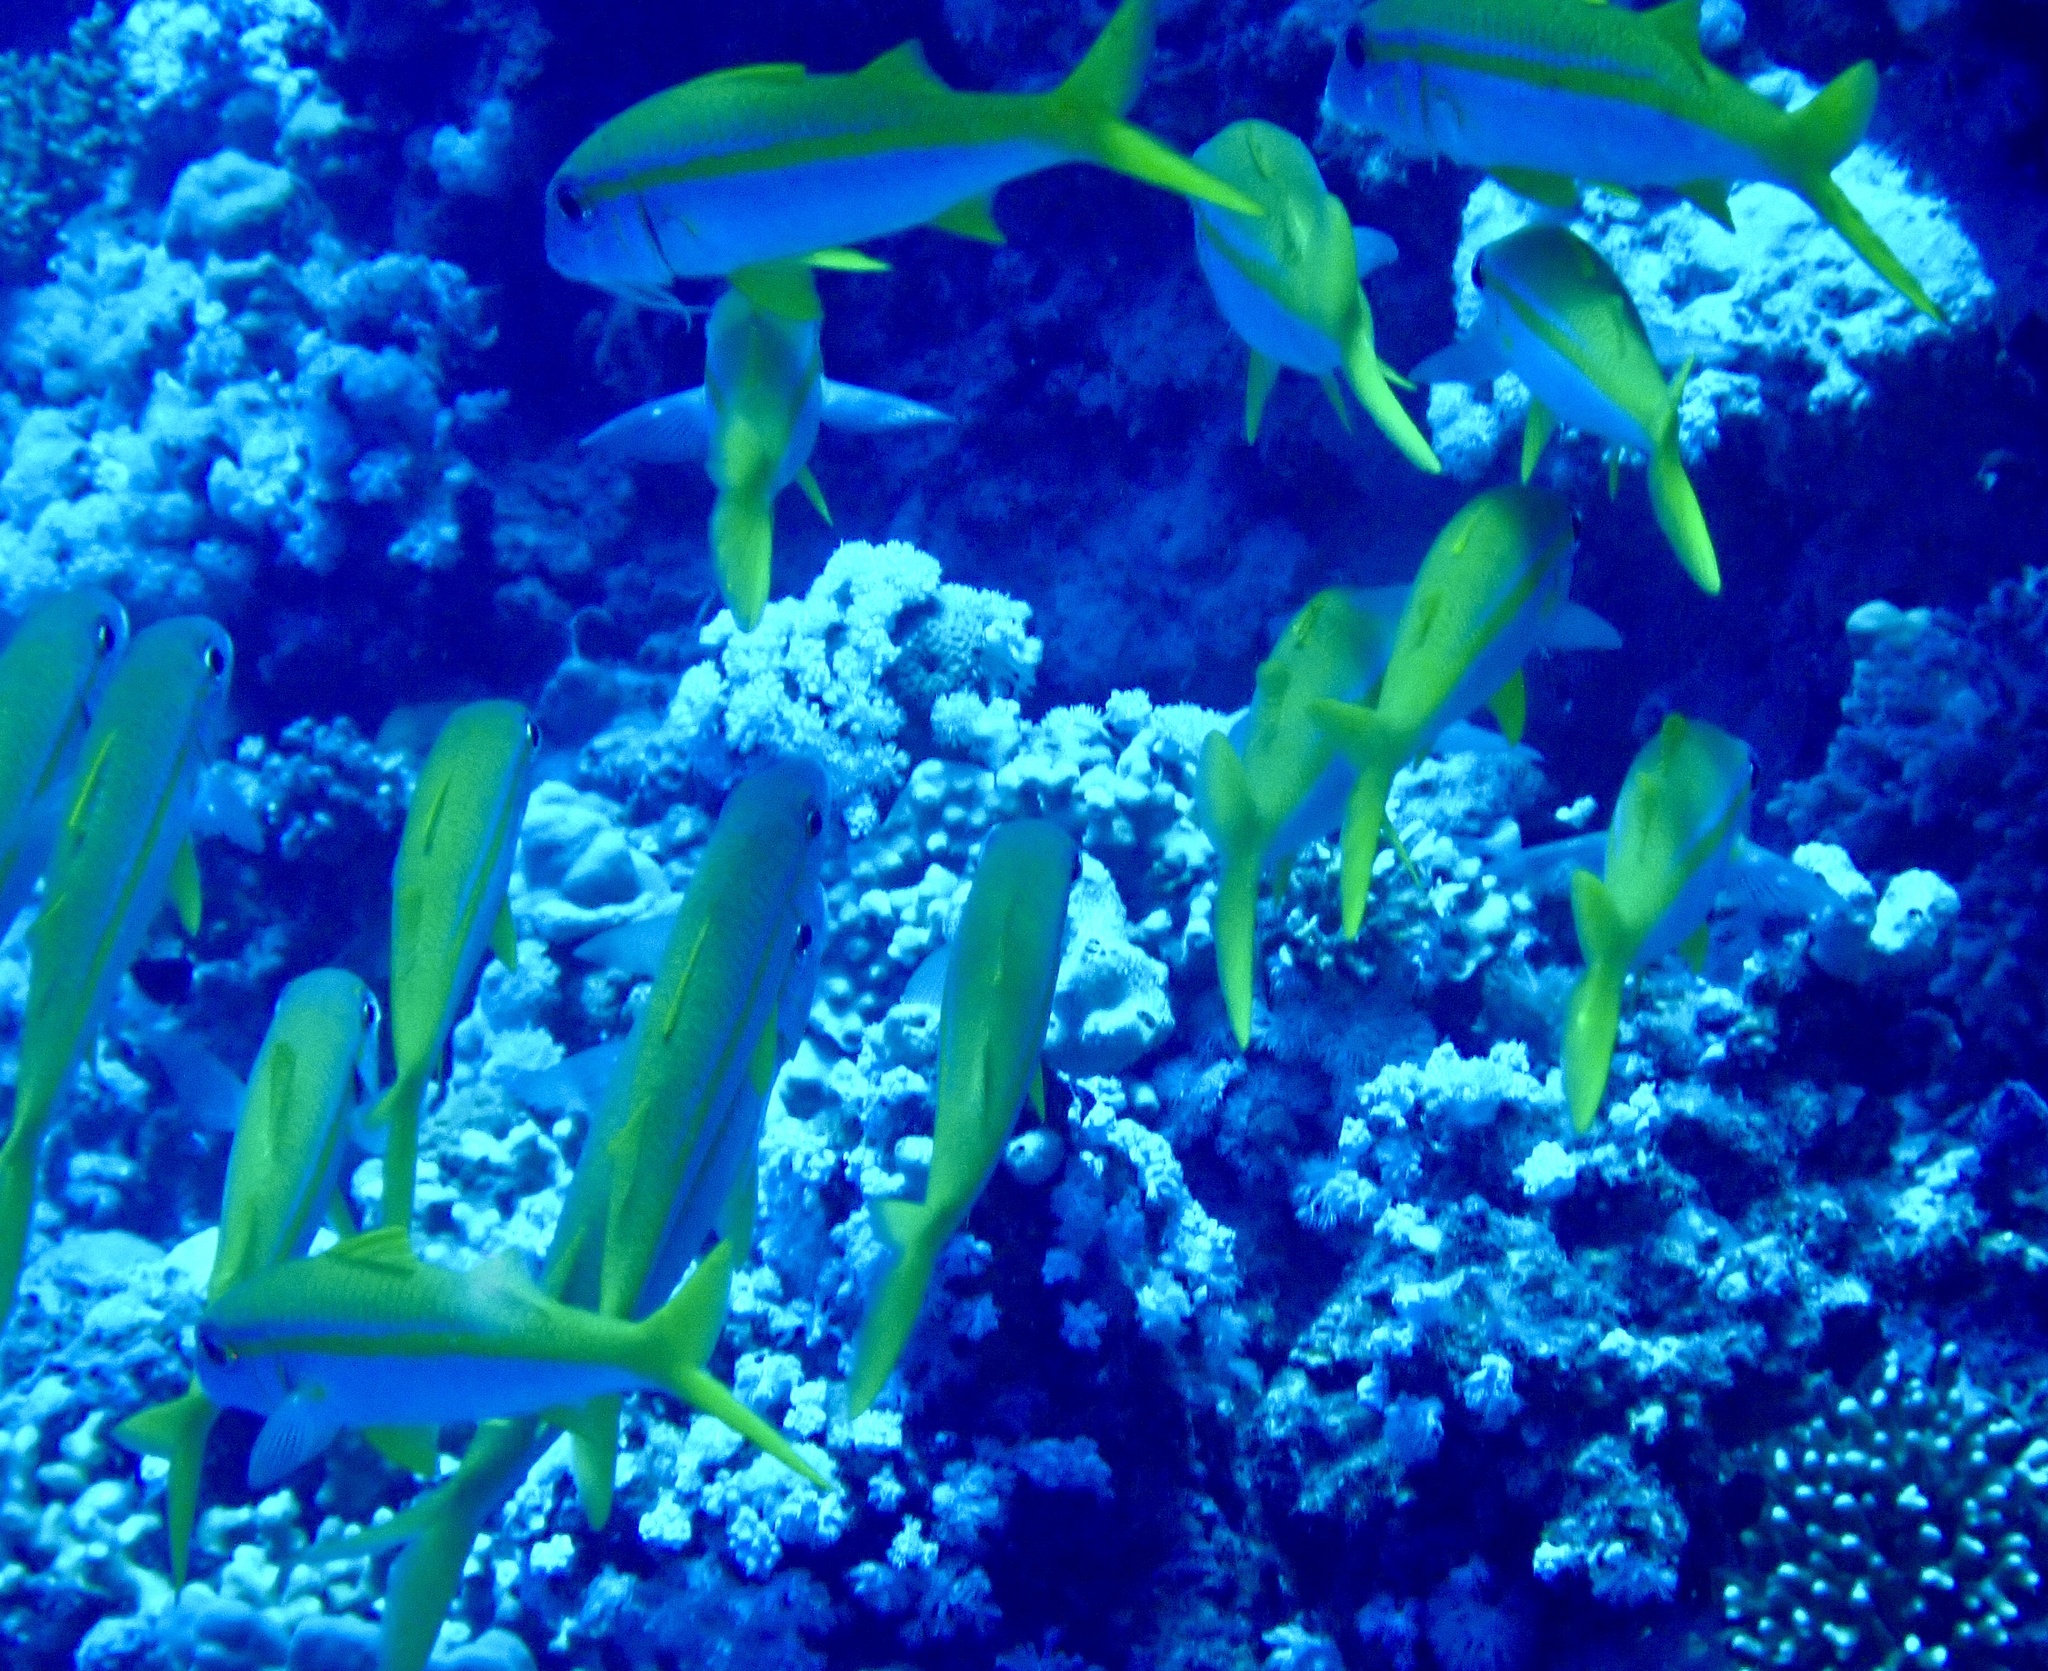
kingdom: Animalia
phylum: Chordata
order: Perciformes
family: Mullidae
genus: Mulloidichthys
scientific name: Mulloidichthys vanicolensis
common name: Yellowfin goatfish
